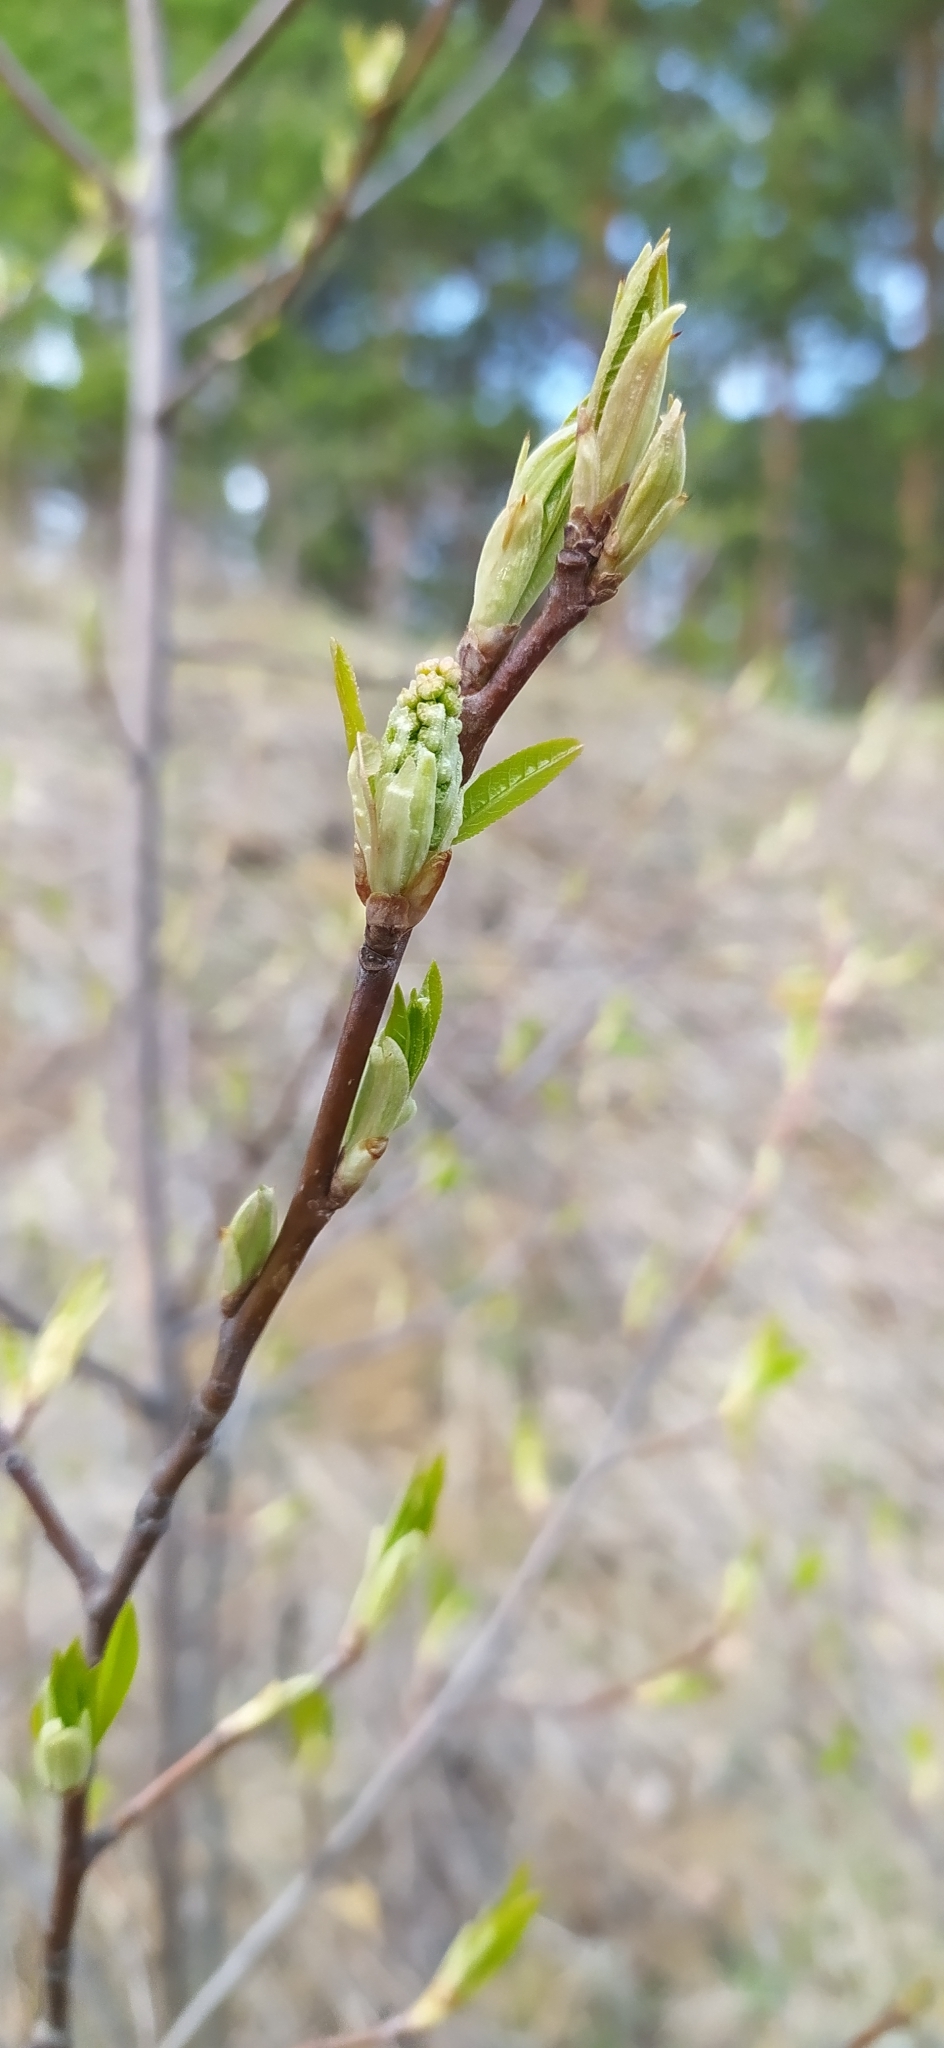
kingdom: Plantae
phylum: Tracheophyta
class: Magnoliopsida
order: Rosales
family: Rosaceae
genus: Prunus
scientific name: Prunus padus
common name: Bird cherry
